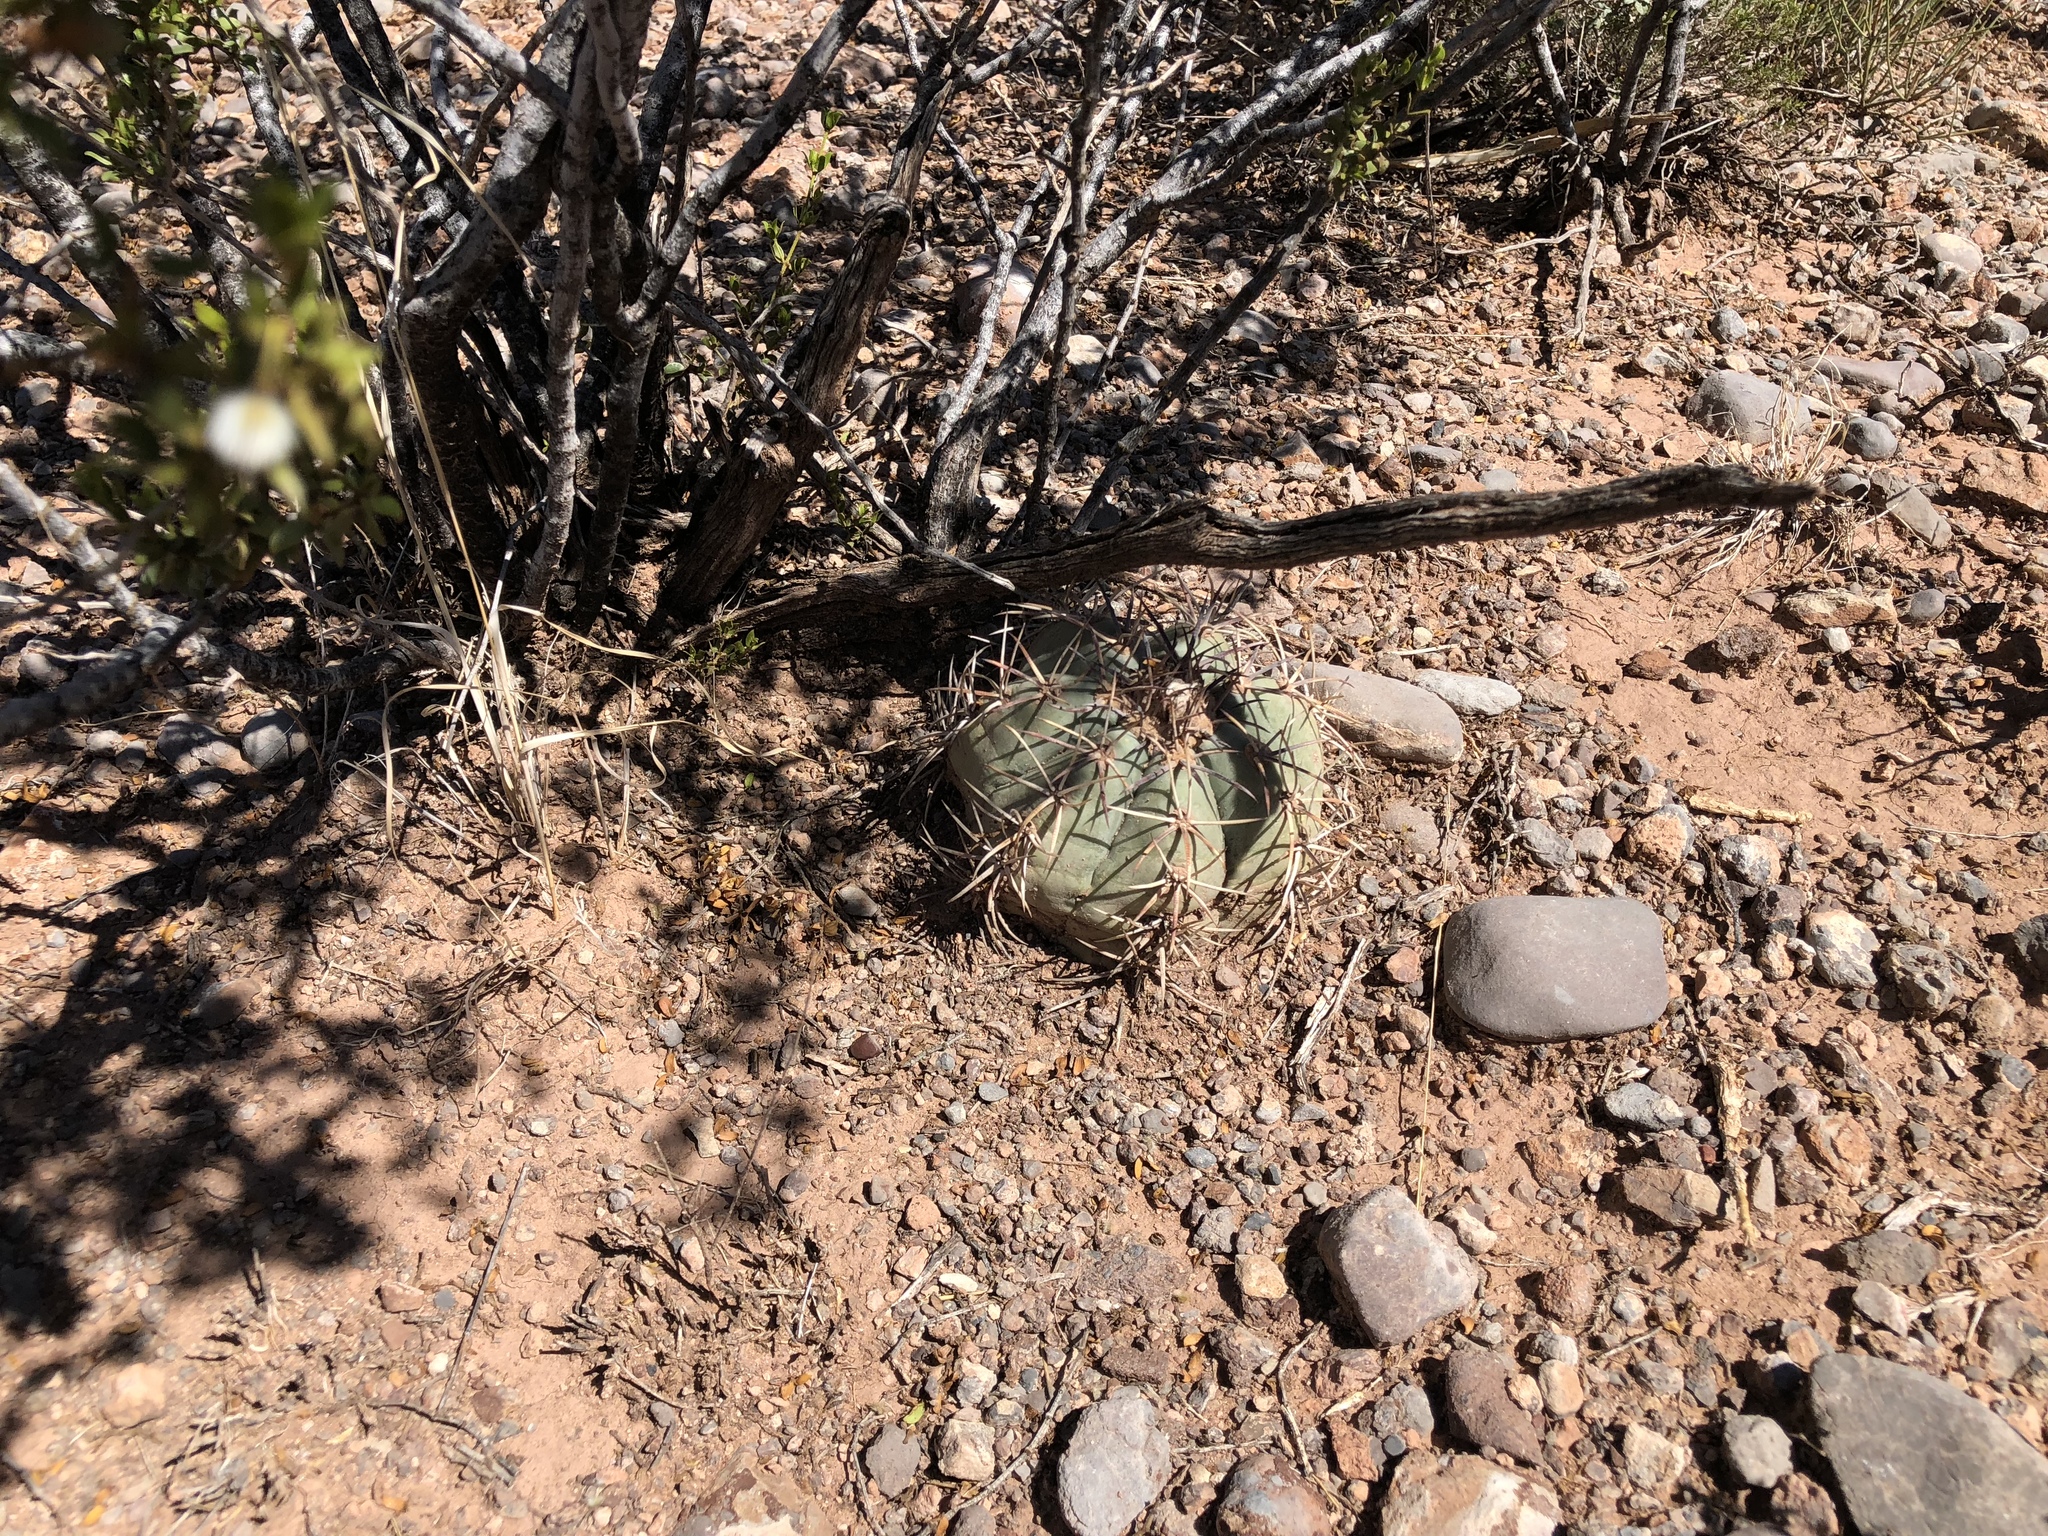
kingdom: Plantae
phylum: Tracheophyta
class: Magnoliopsida
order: Caryophyllales
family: Cactaceae
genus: Echinocactus
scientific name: Echinocactus horizonthalonius
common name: Devilshead
